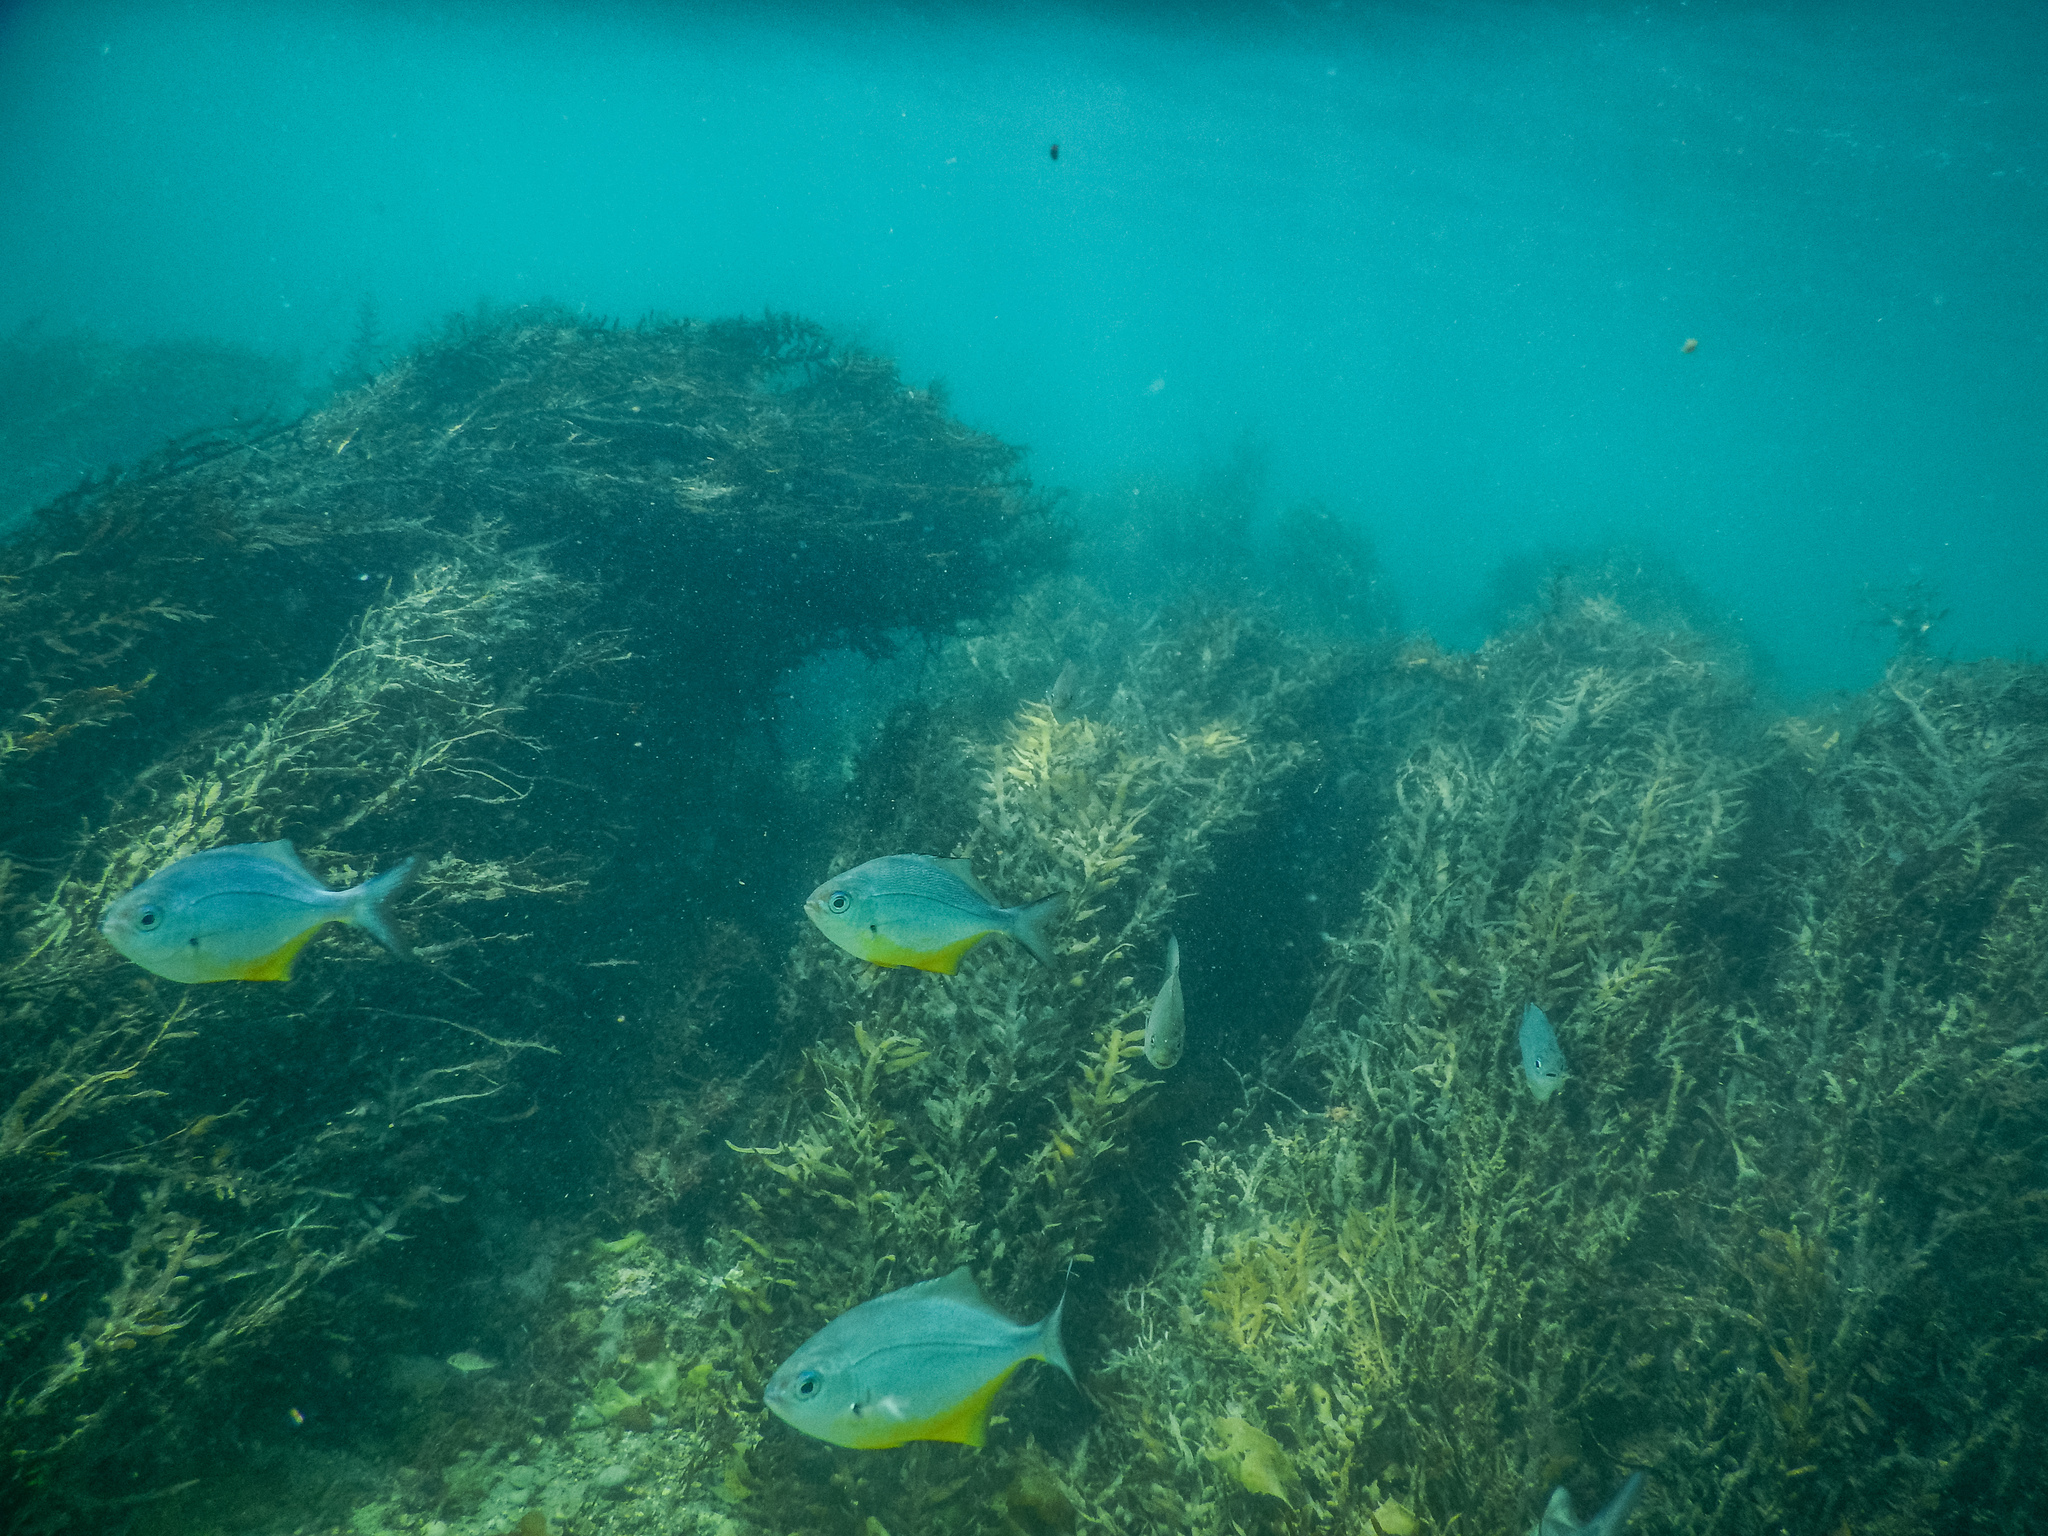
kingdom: Animalia
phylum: Chordata
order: Perciformes
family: Kyphosidae
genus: Scorpis
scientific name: Scorpis violacea
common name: Blue maomao
